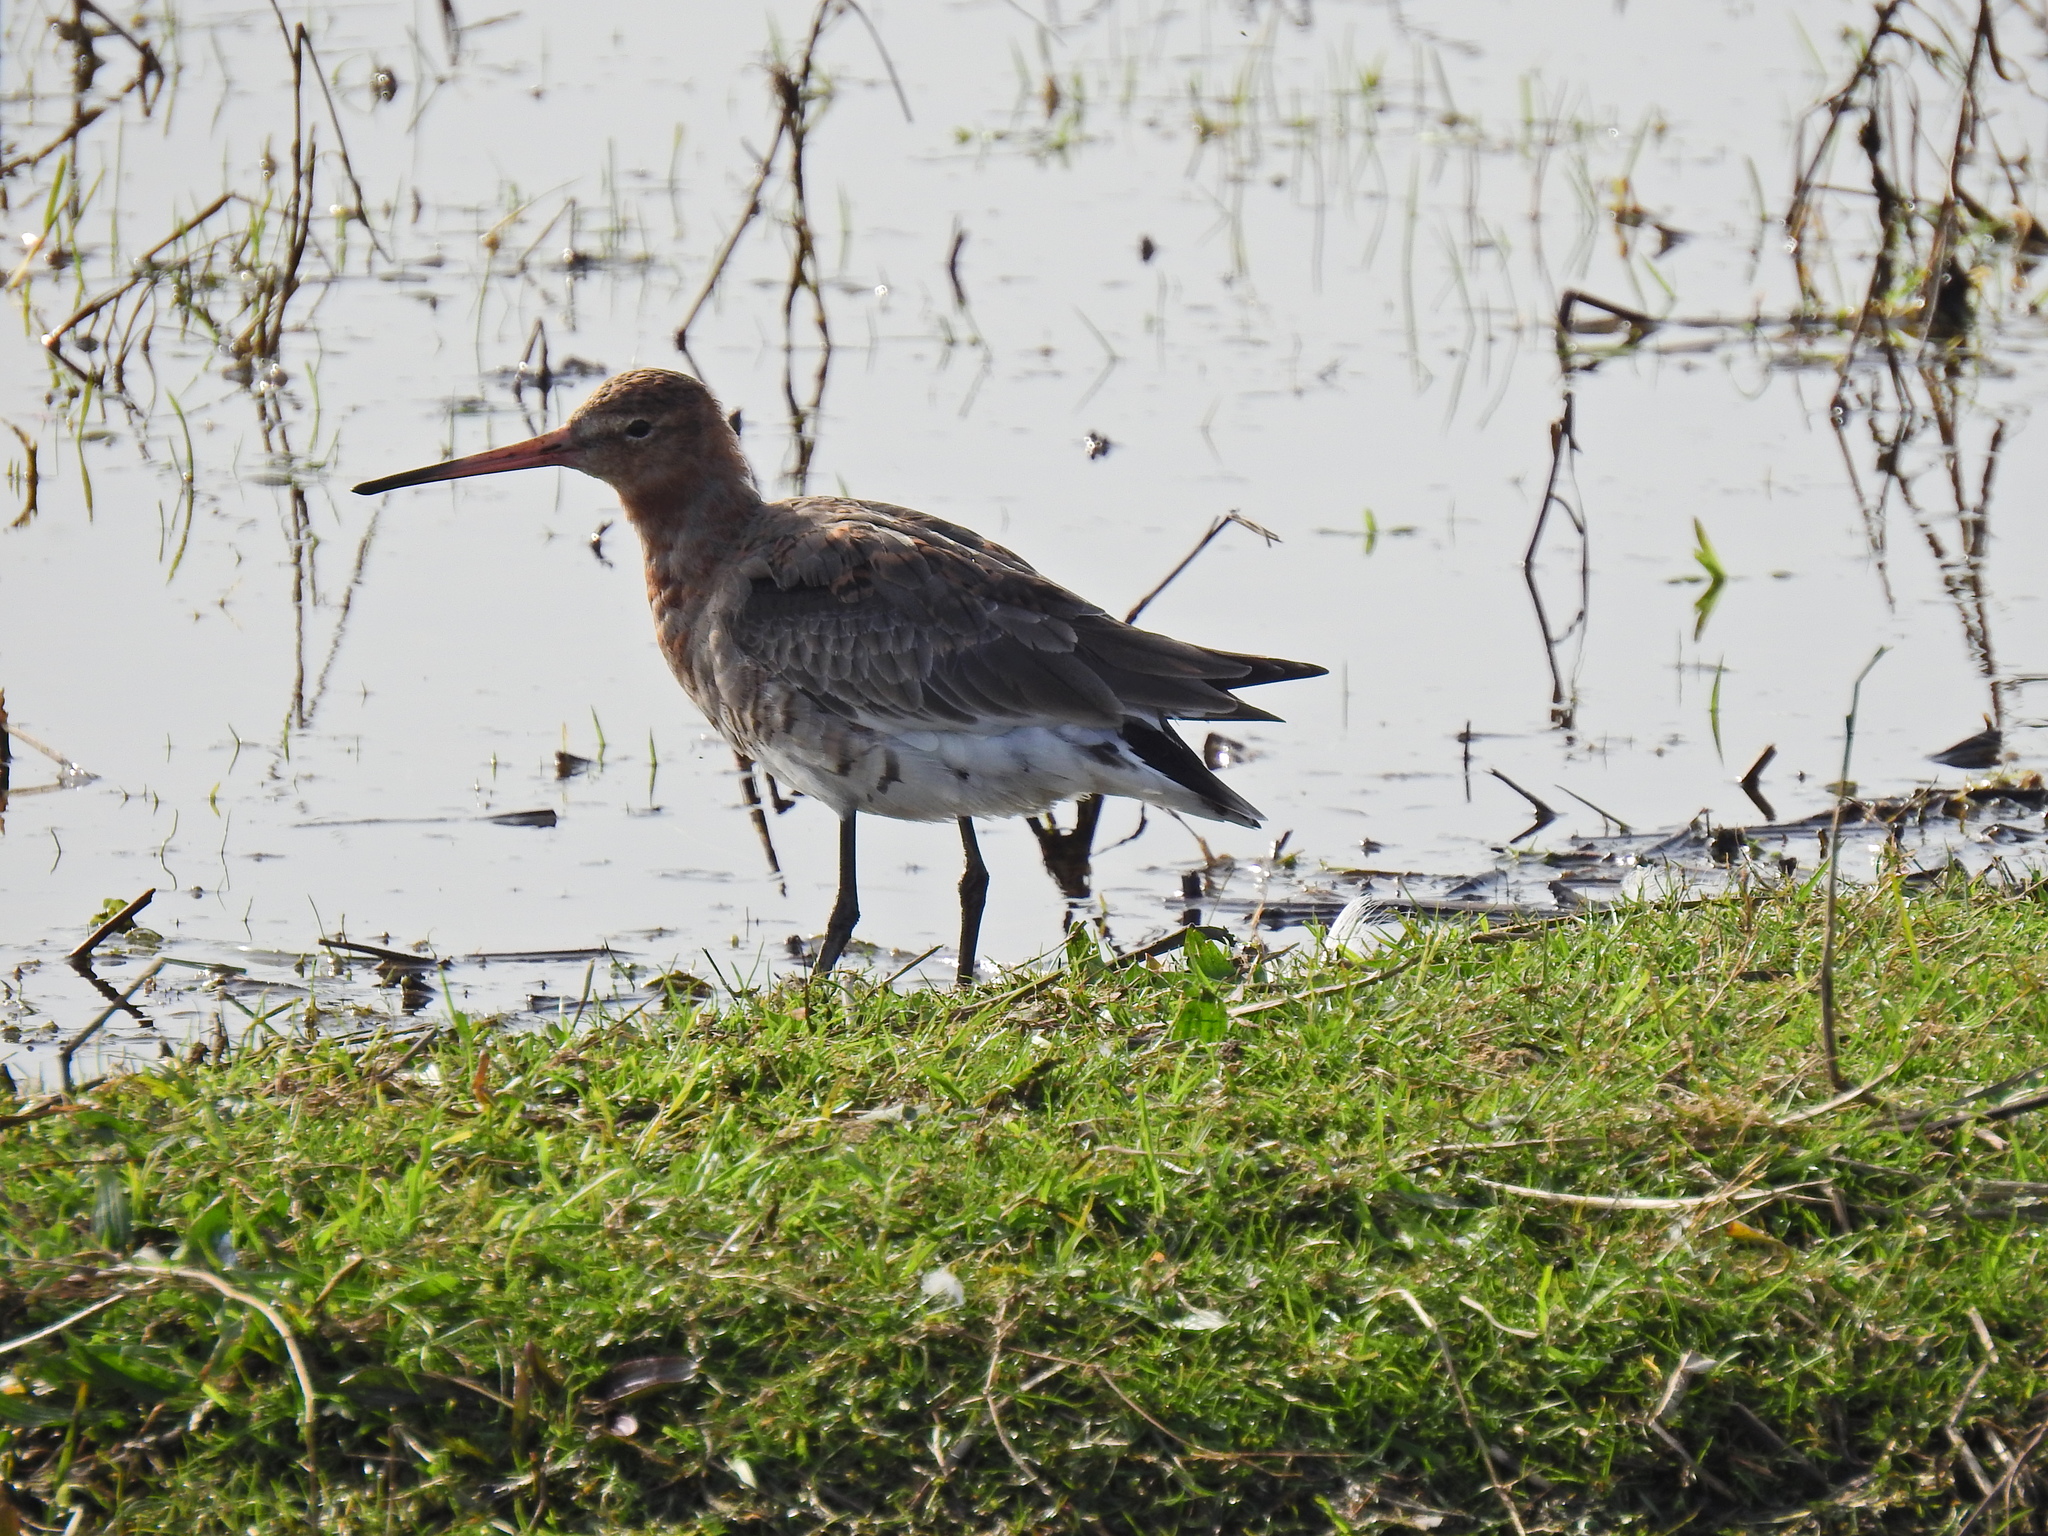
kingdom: Animalia
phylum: Chordata
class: Aves
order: Charadriiformes
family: Scolopacidae
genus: Limosa
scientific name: Limosa limosa
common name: Black-tailed godwit
